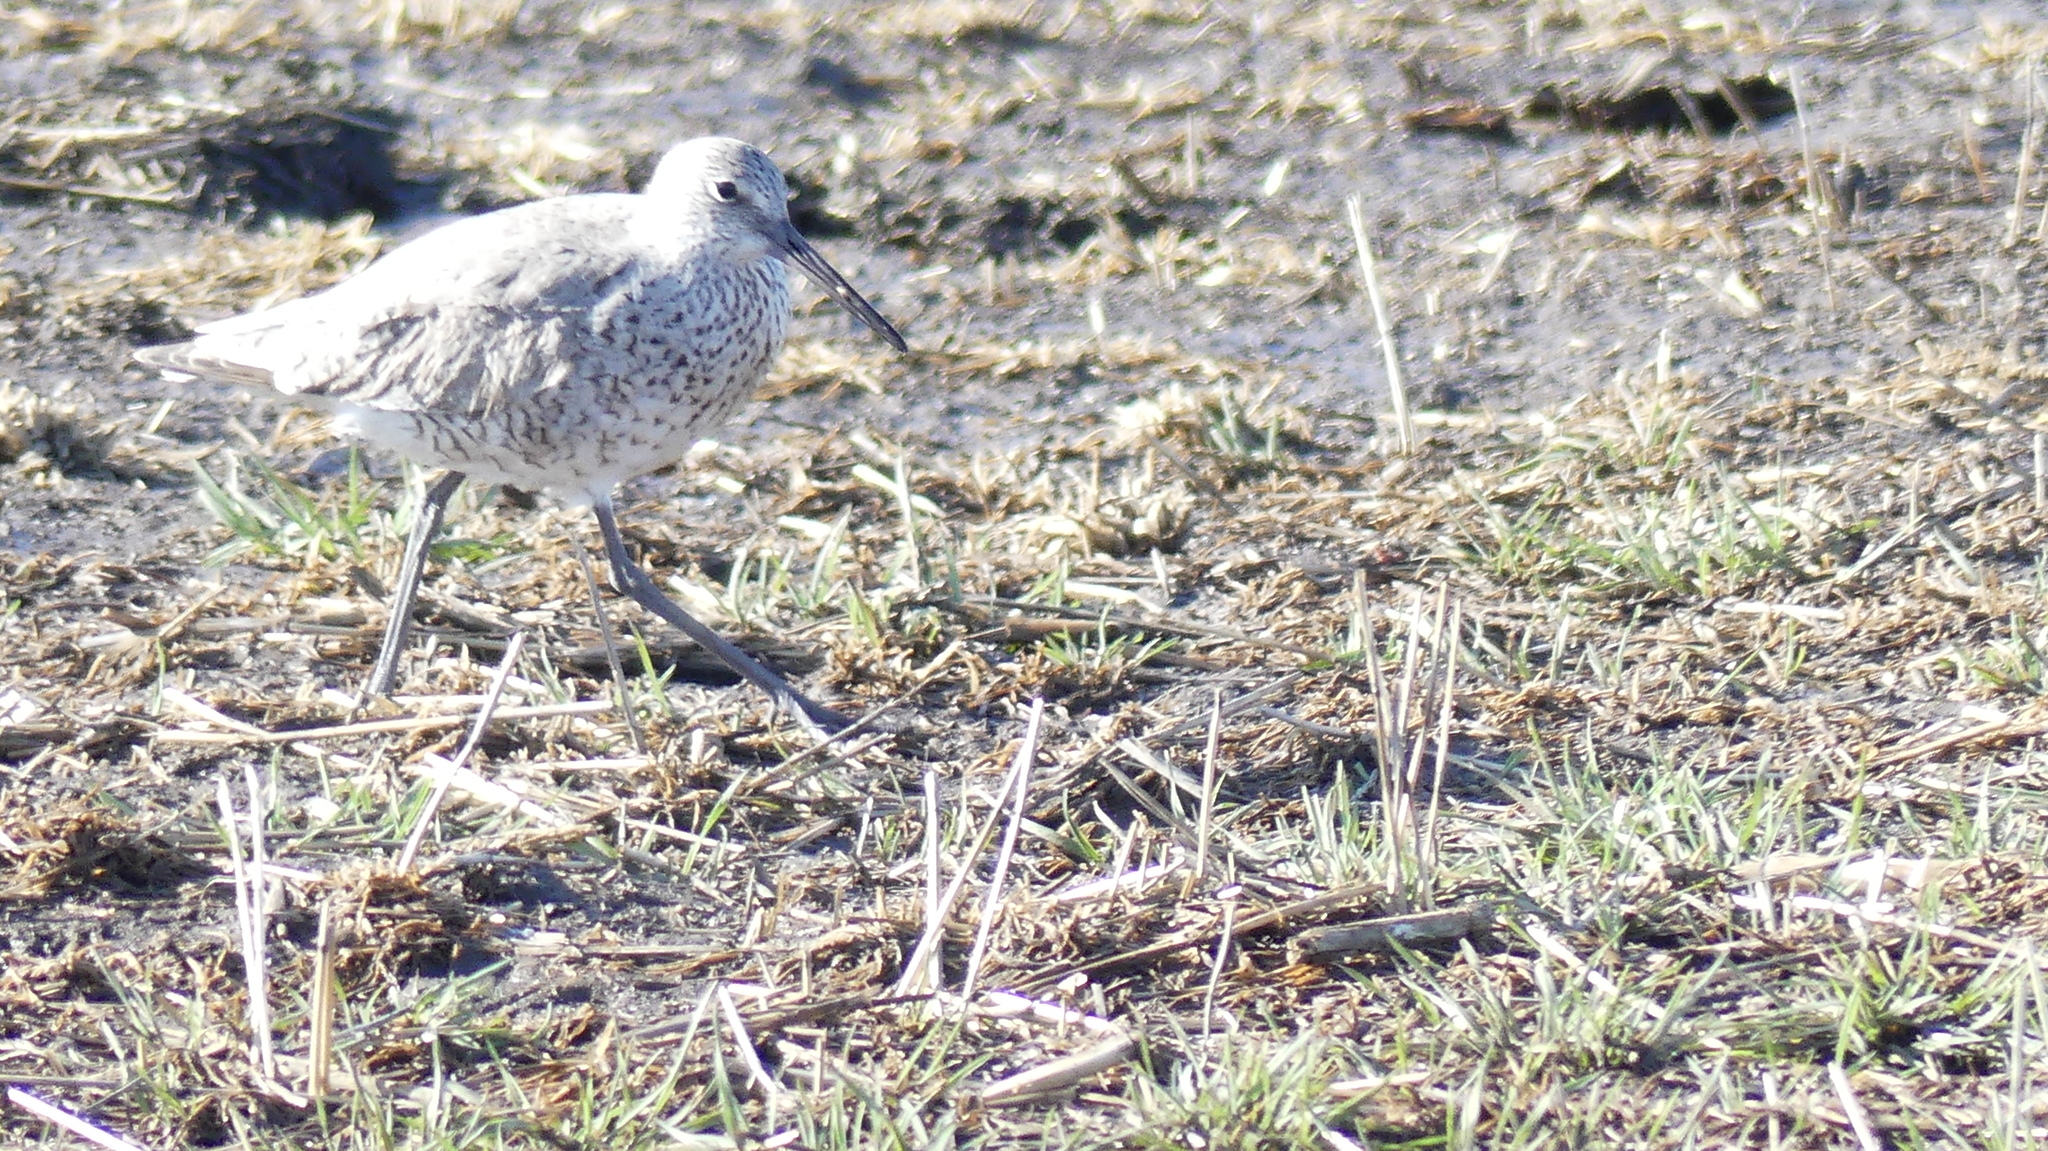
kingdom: Animalia
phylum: Chordata
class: Aves
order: Charadriiformes
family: Scolopacidae
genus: Tringa
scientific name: Tringa semipalmata
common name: Willet
